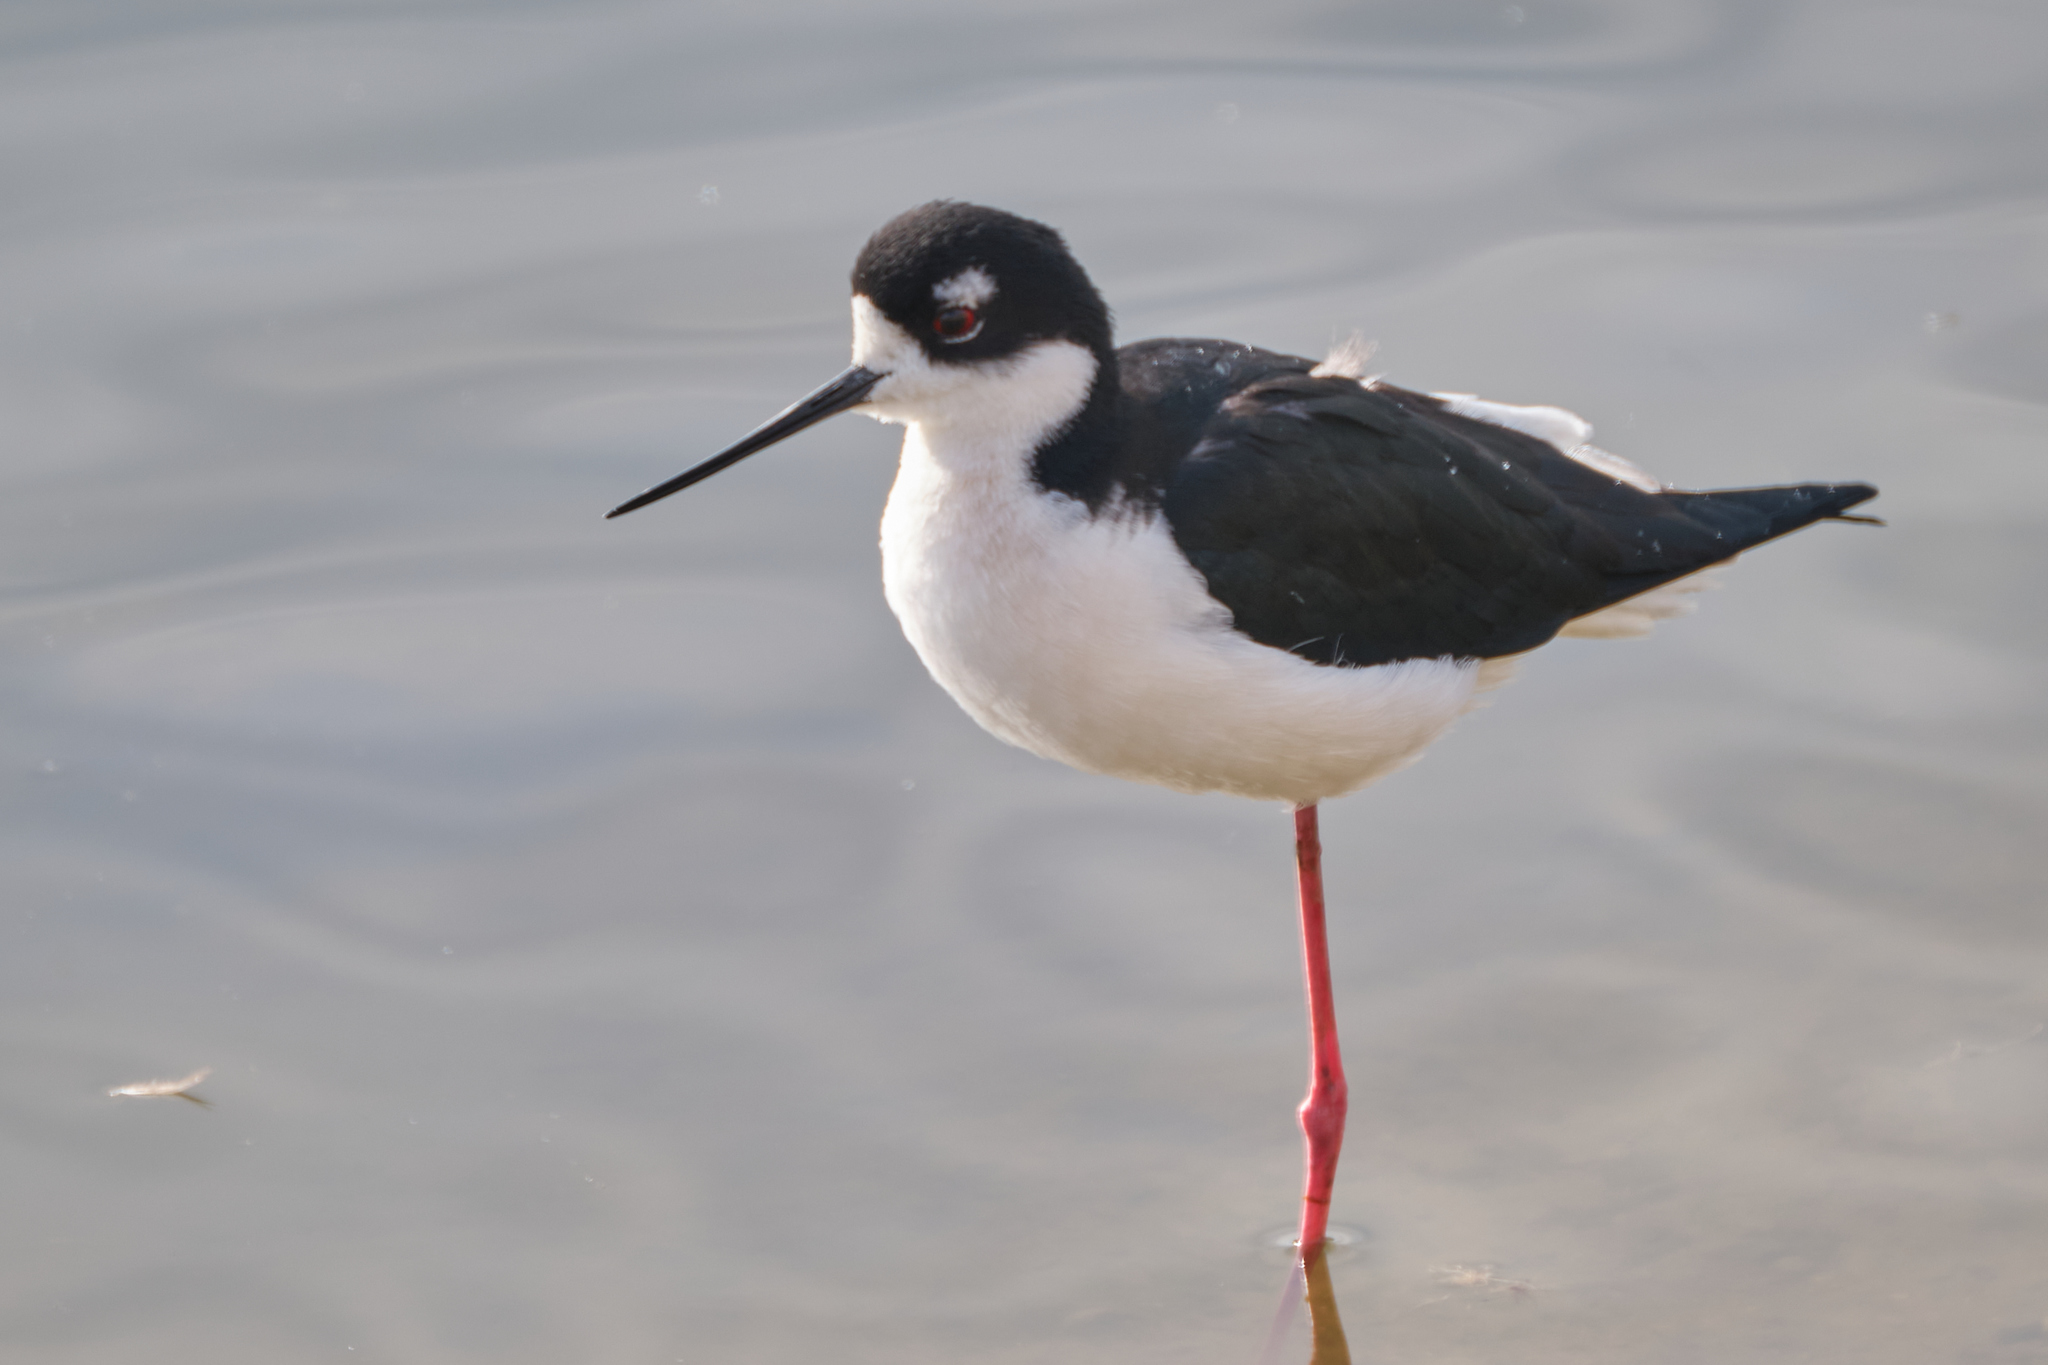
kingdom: Animalia
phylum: Chordata
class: Aves
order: Charadriiformes
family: Recurvirostridae
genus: Himantopus
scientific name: Himantopus mexicanus
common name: Black-necked stilt
